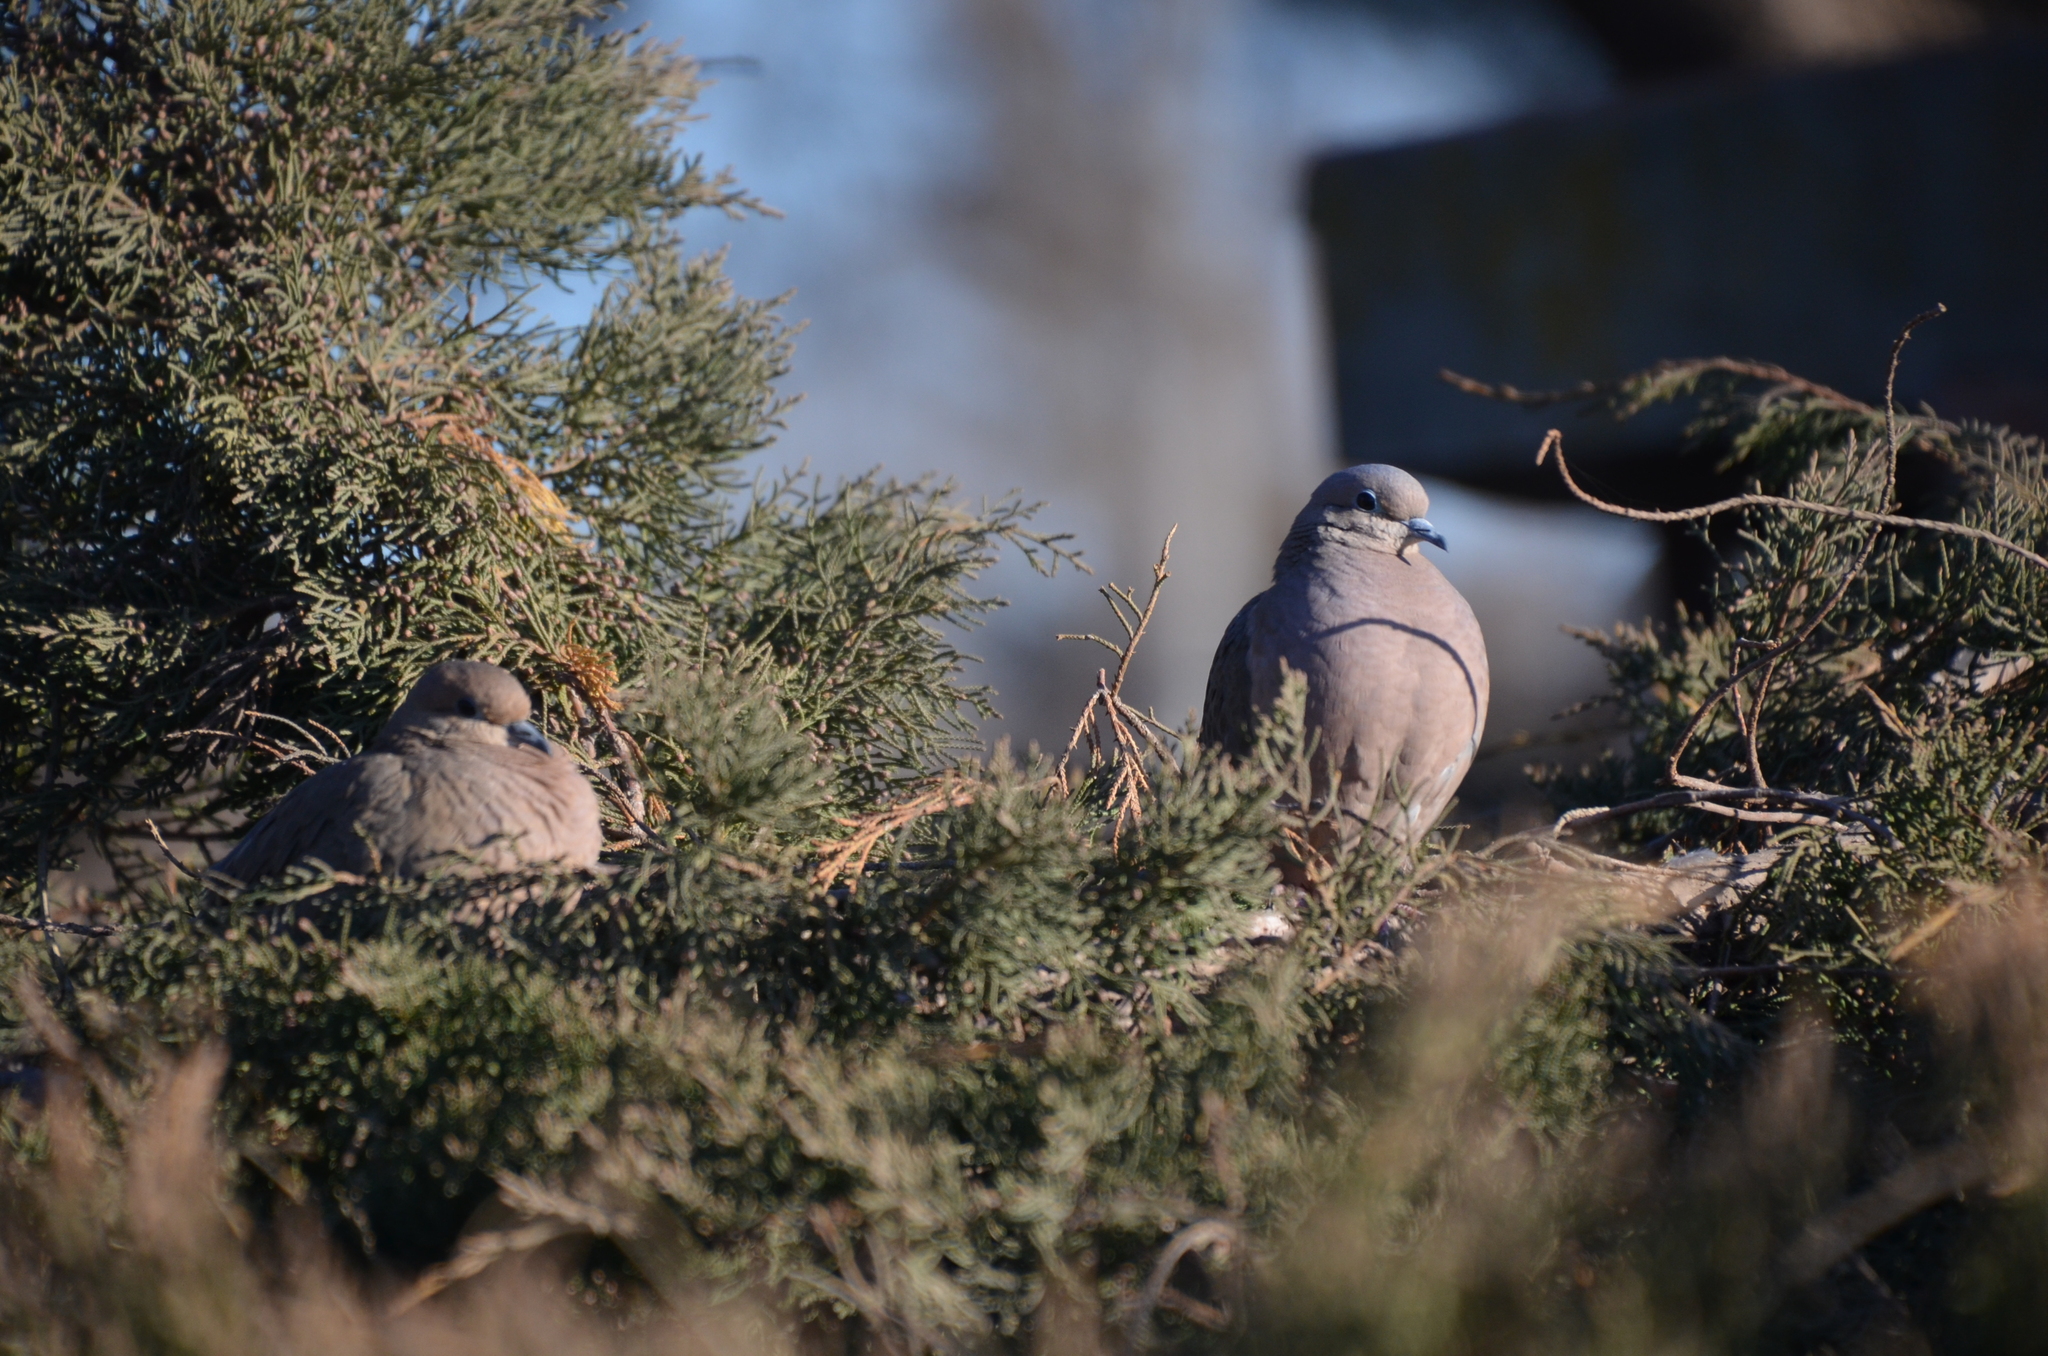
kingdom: Animalia
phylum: Chordata
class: Aves
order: Columbiformes
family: Columbidae
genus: Zenaida
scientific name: Zenaida auriculata
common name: Eared dove
